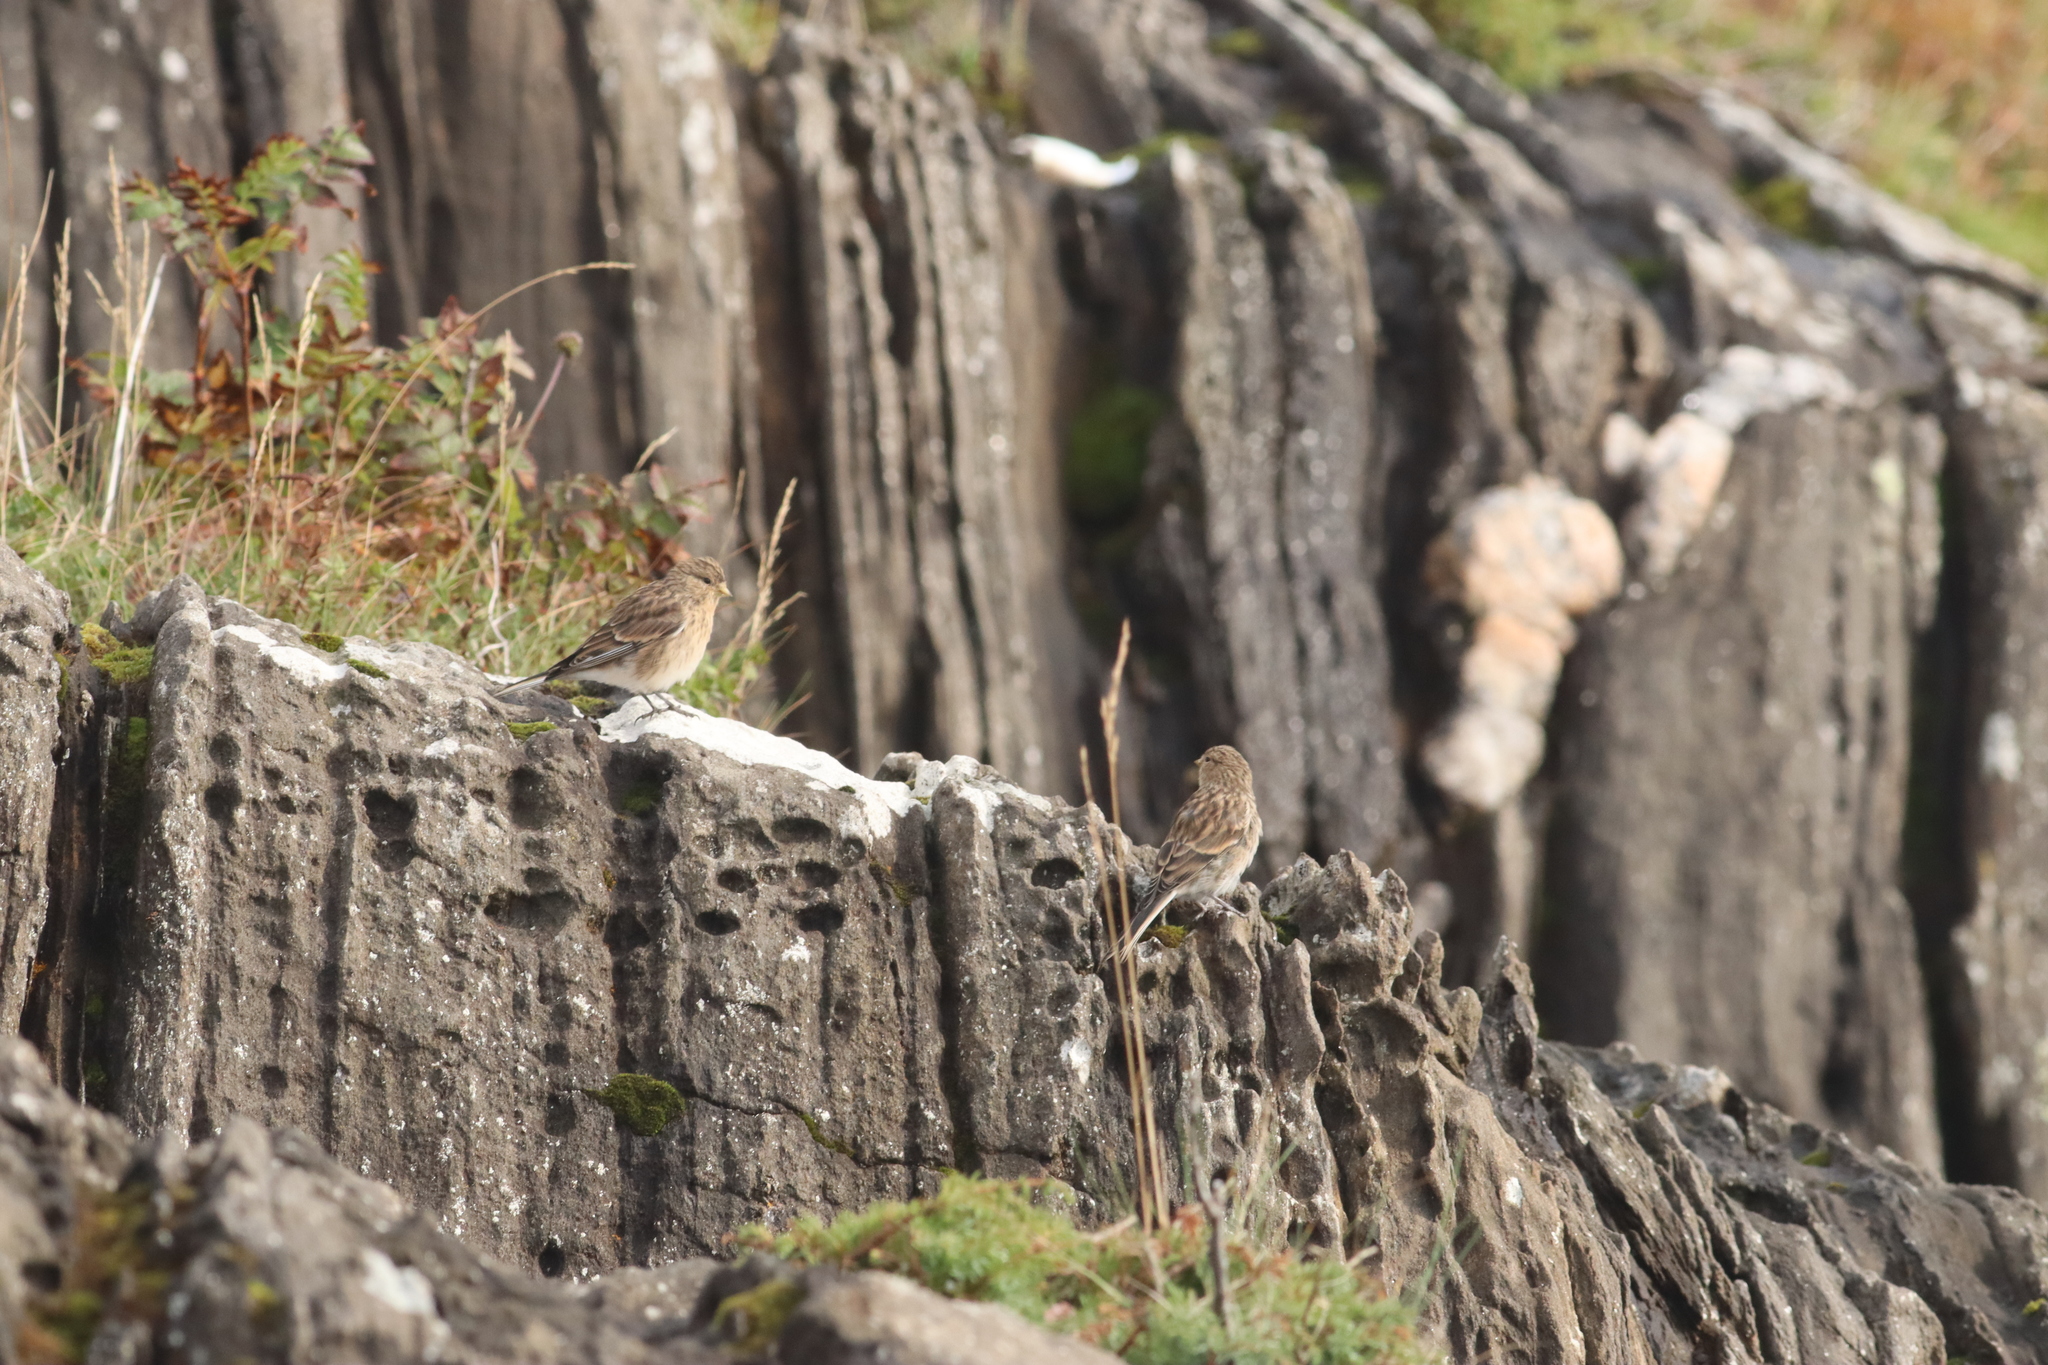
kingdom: Animalia
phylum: Chordata
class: Aves
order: Passeriformes
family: Fringillidae
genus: Linaria
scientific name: Linaria flavirostris
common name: Twite
